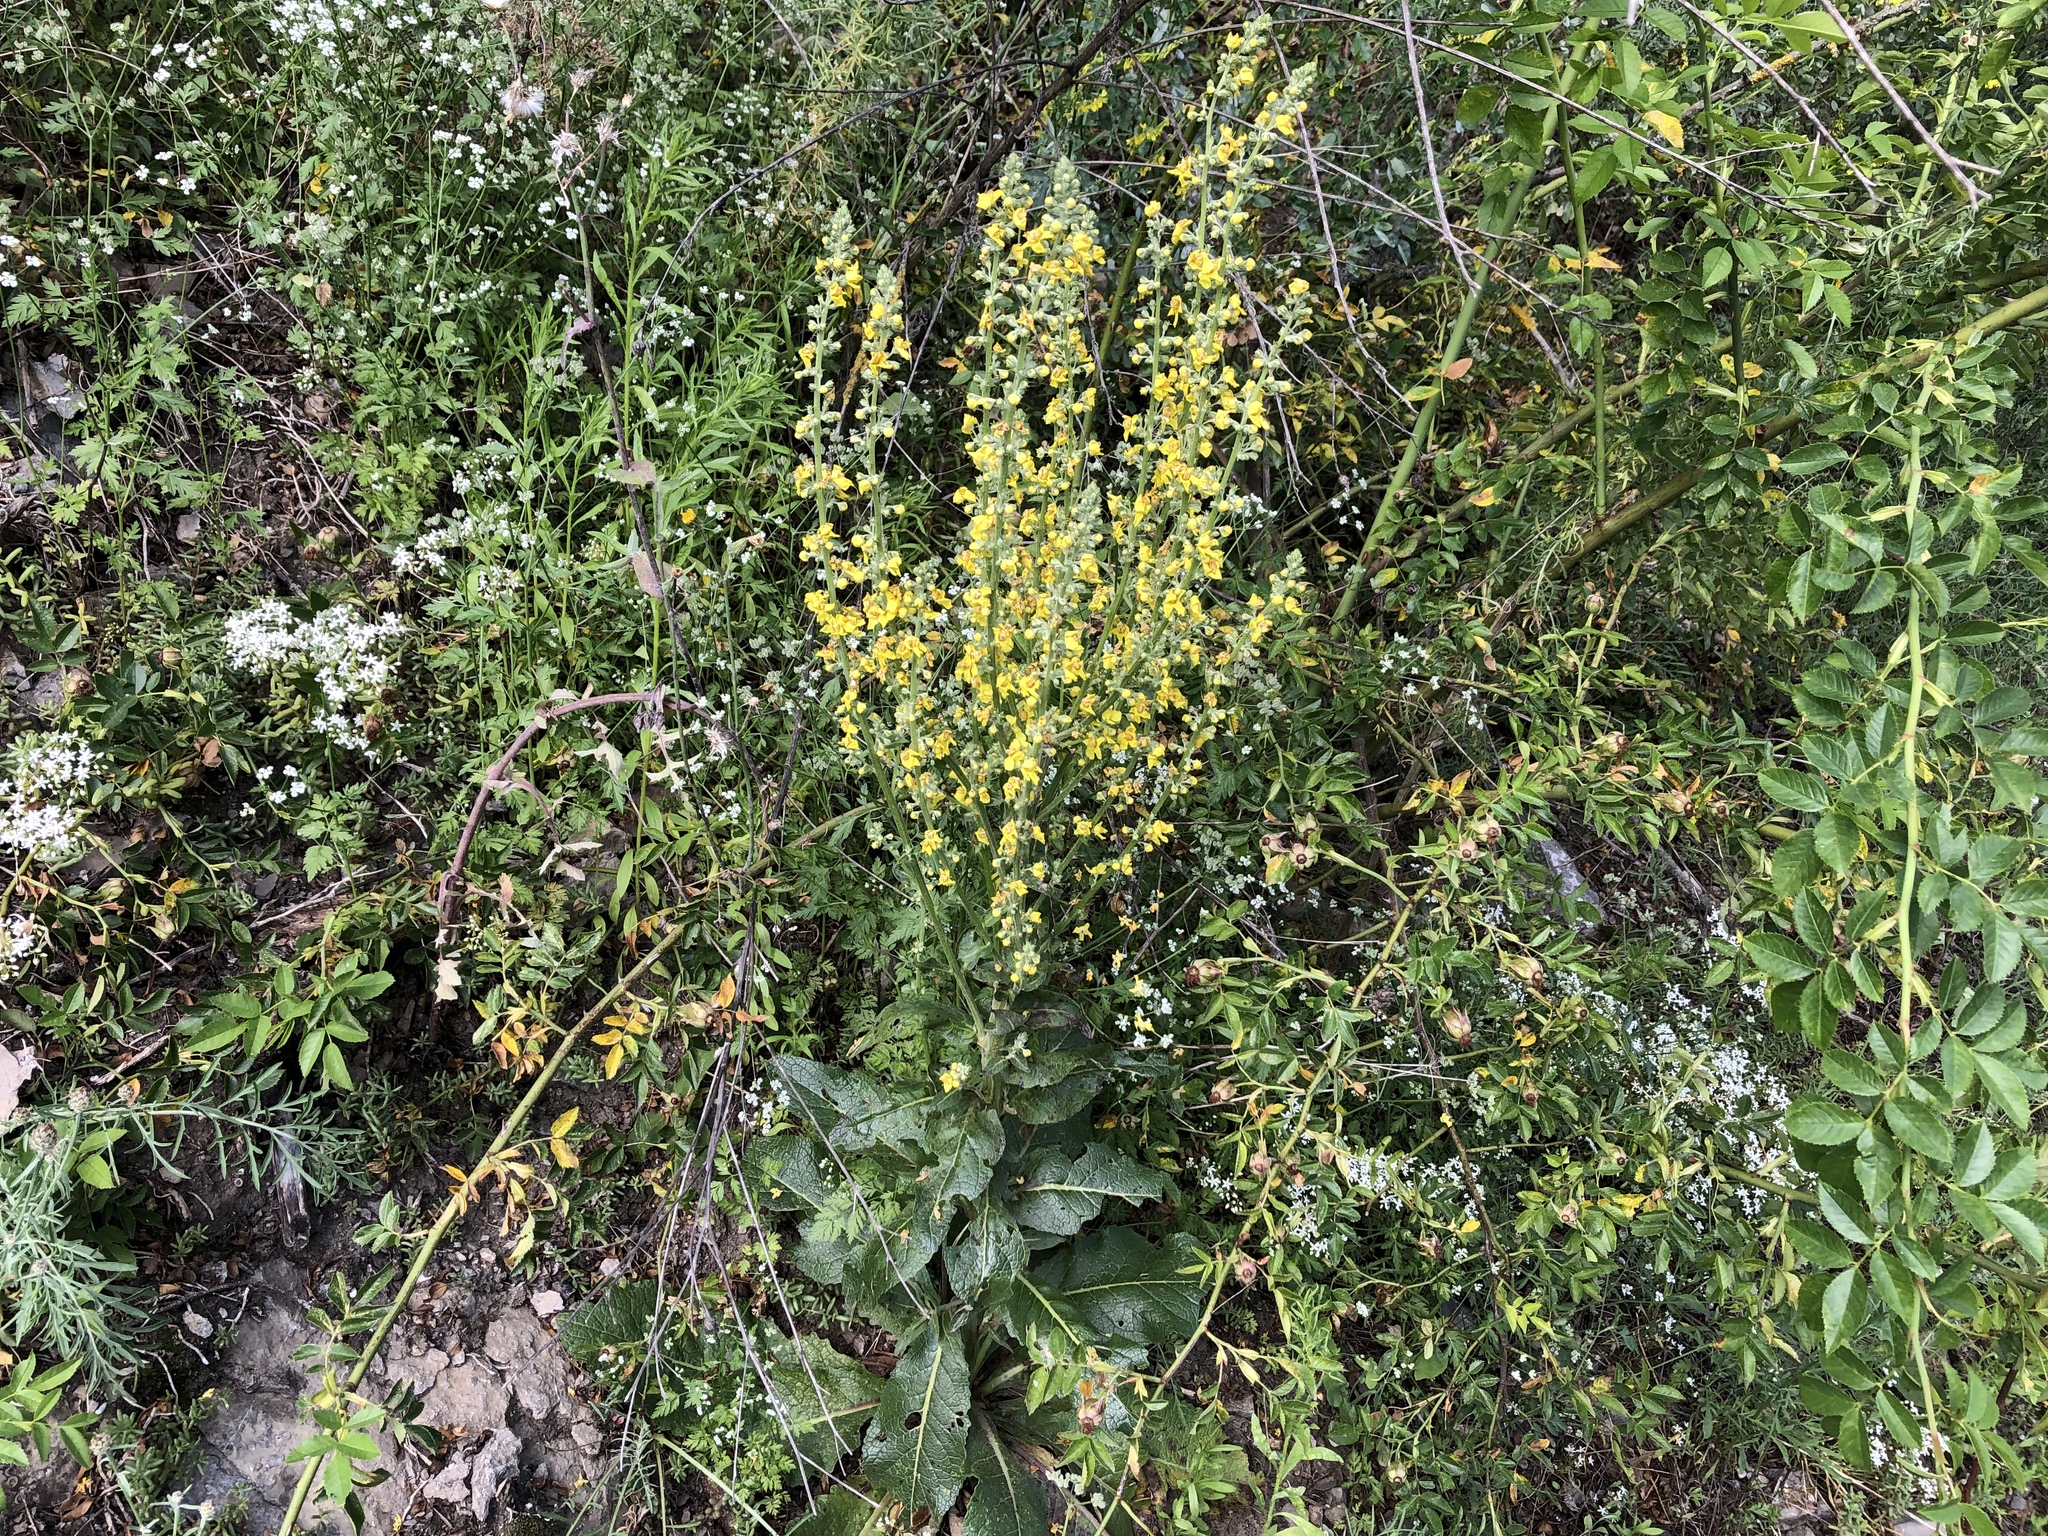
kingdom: Plantae
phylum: Tracheophyta
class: Magnoliopsida
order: Lamiales
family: Scrophulariaceae
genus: Verbascum
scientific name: Verbascum lychnitis
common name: White mullein
